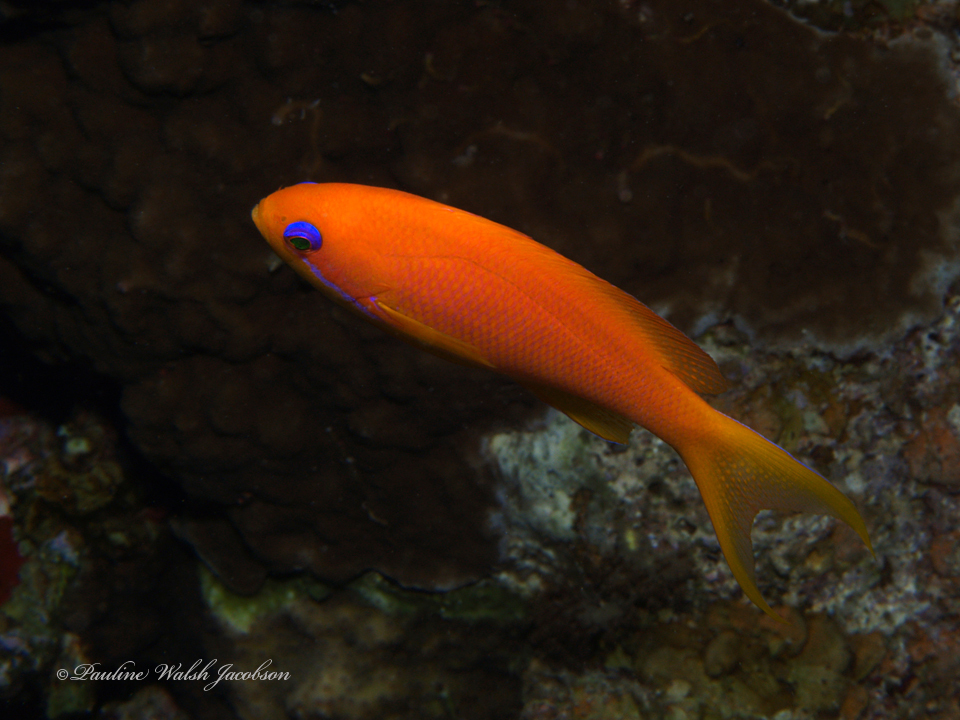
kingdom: Animalia
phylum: Chordata
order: Perciformes
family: Serranidae
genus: Pseudanthias
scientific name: Pseudanthias squamipinnis
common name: Scalefin anthias
